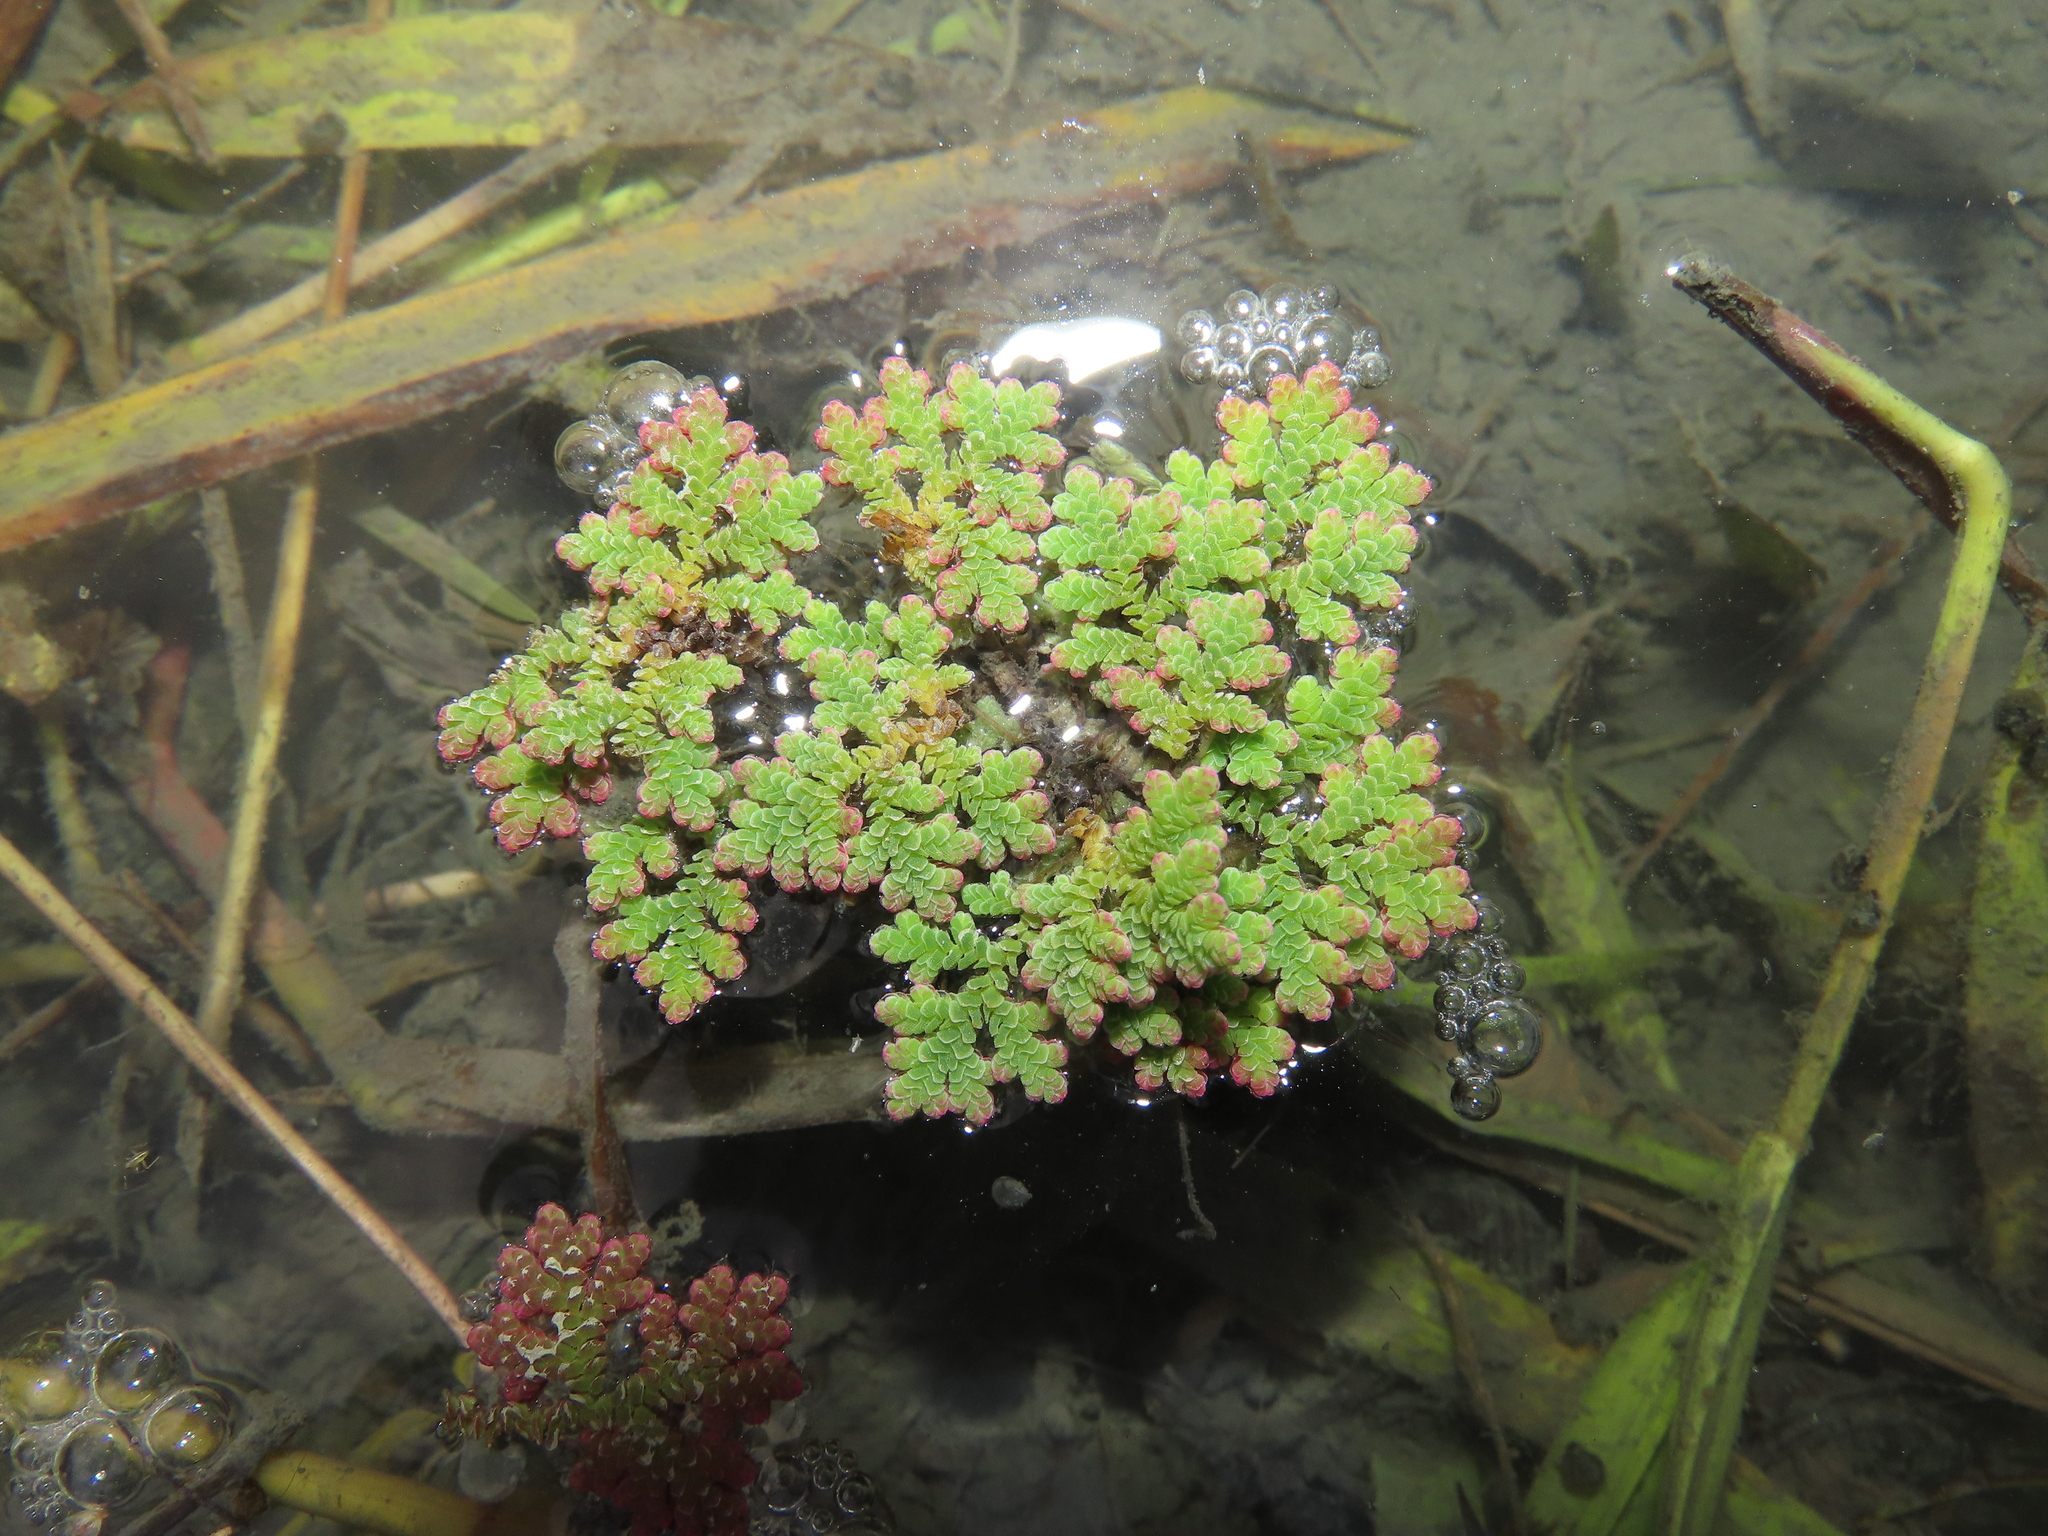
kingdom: Plantae
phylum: Tracheophyta
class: Polypodiopsida
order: Salviniales
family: Salviniaceae
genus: Azolla
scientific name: Azolla caroliniana
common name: Carolina mosquitofern
